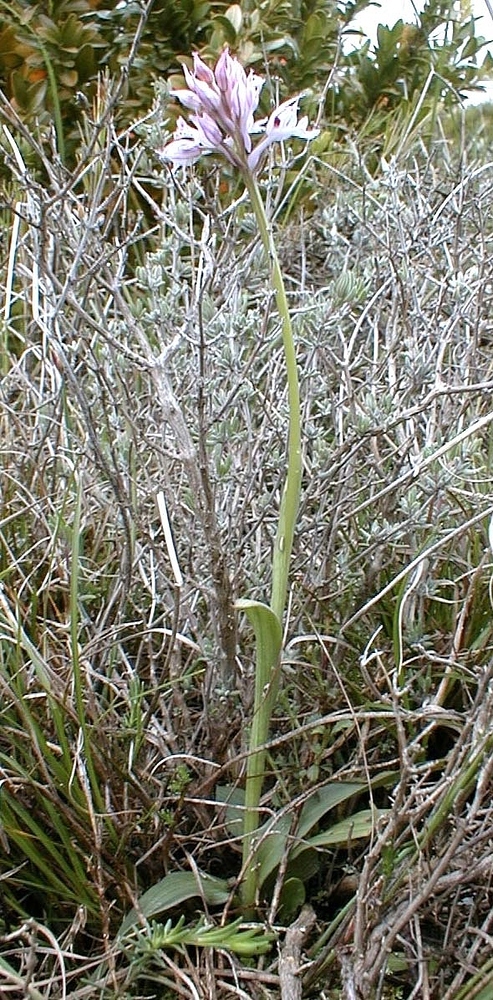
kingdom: Plantae
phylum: Tracheophyta
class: Liliopsida
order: Asparagales
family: Orchidaceae
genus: Neotinea
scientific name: Neotinea tridentata
